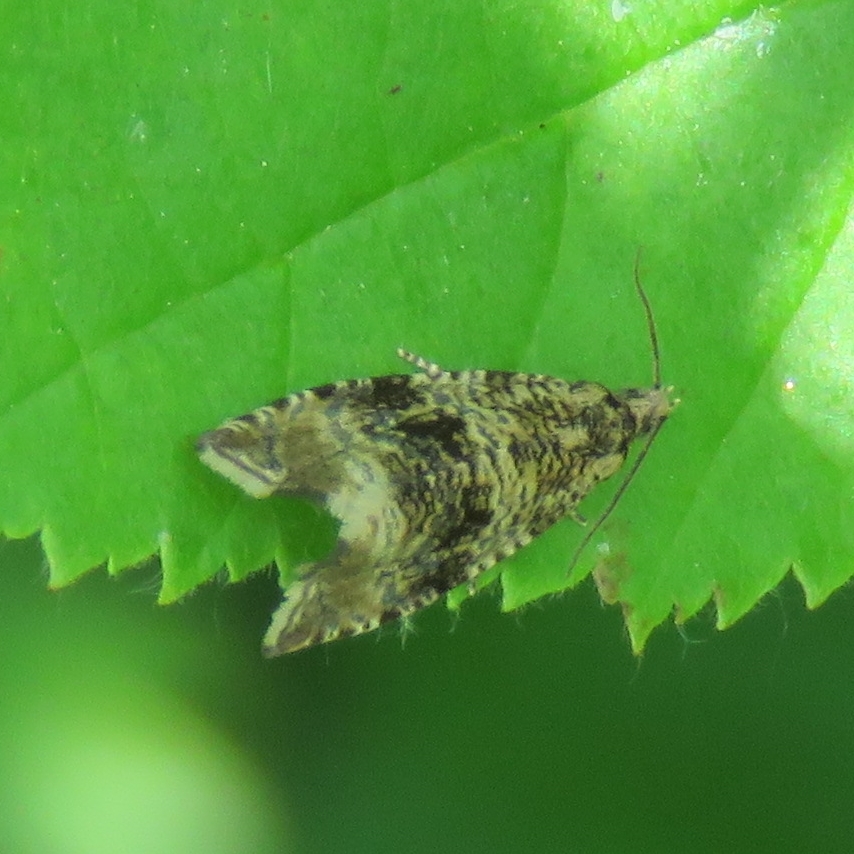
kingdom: Animalia
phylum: Arthropoda
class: Insecta
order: Lepidoptera
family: Tortricidae
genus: Syricoris
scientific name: Syricoris lacunana
